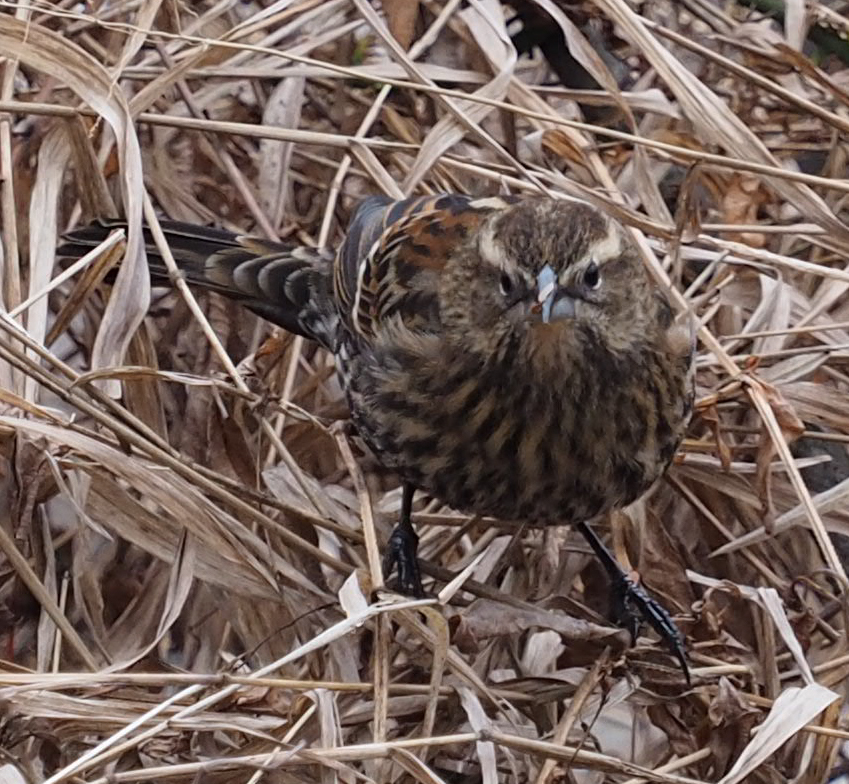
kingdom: Animalia
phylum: Chordata
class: Aves
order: Passeriformes
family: Icteridae
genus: Agelaius
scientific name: Agelaius phoeniceus
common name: Red-winged blackbird
